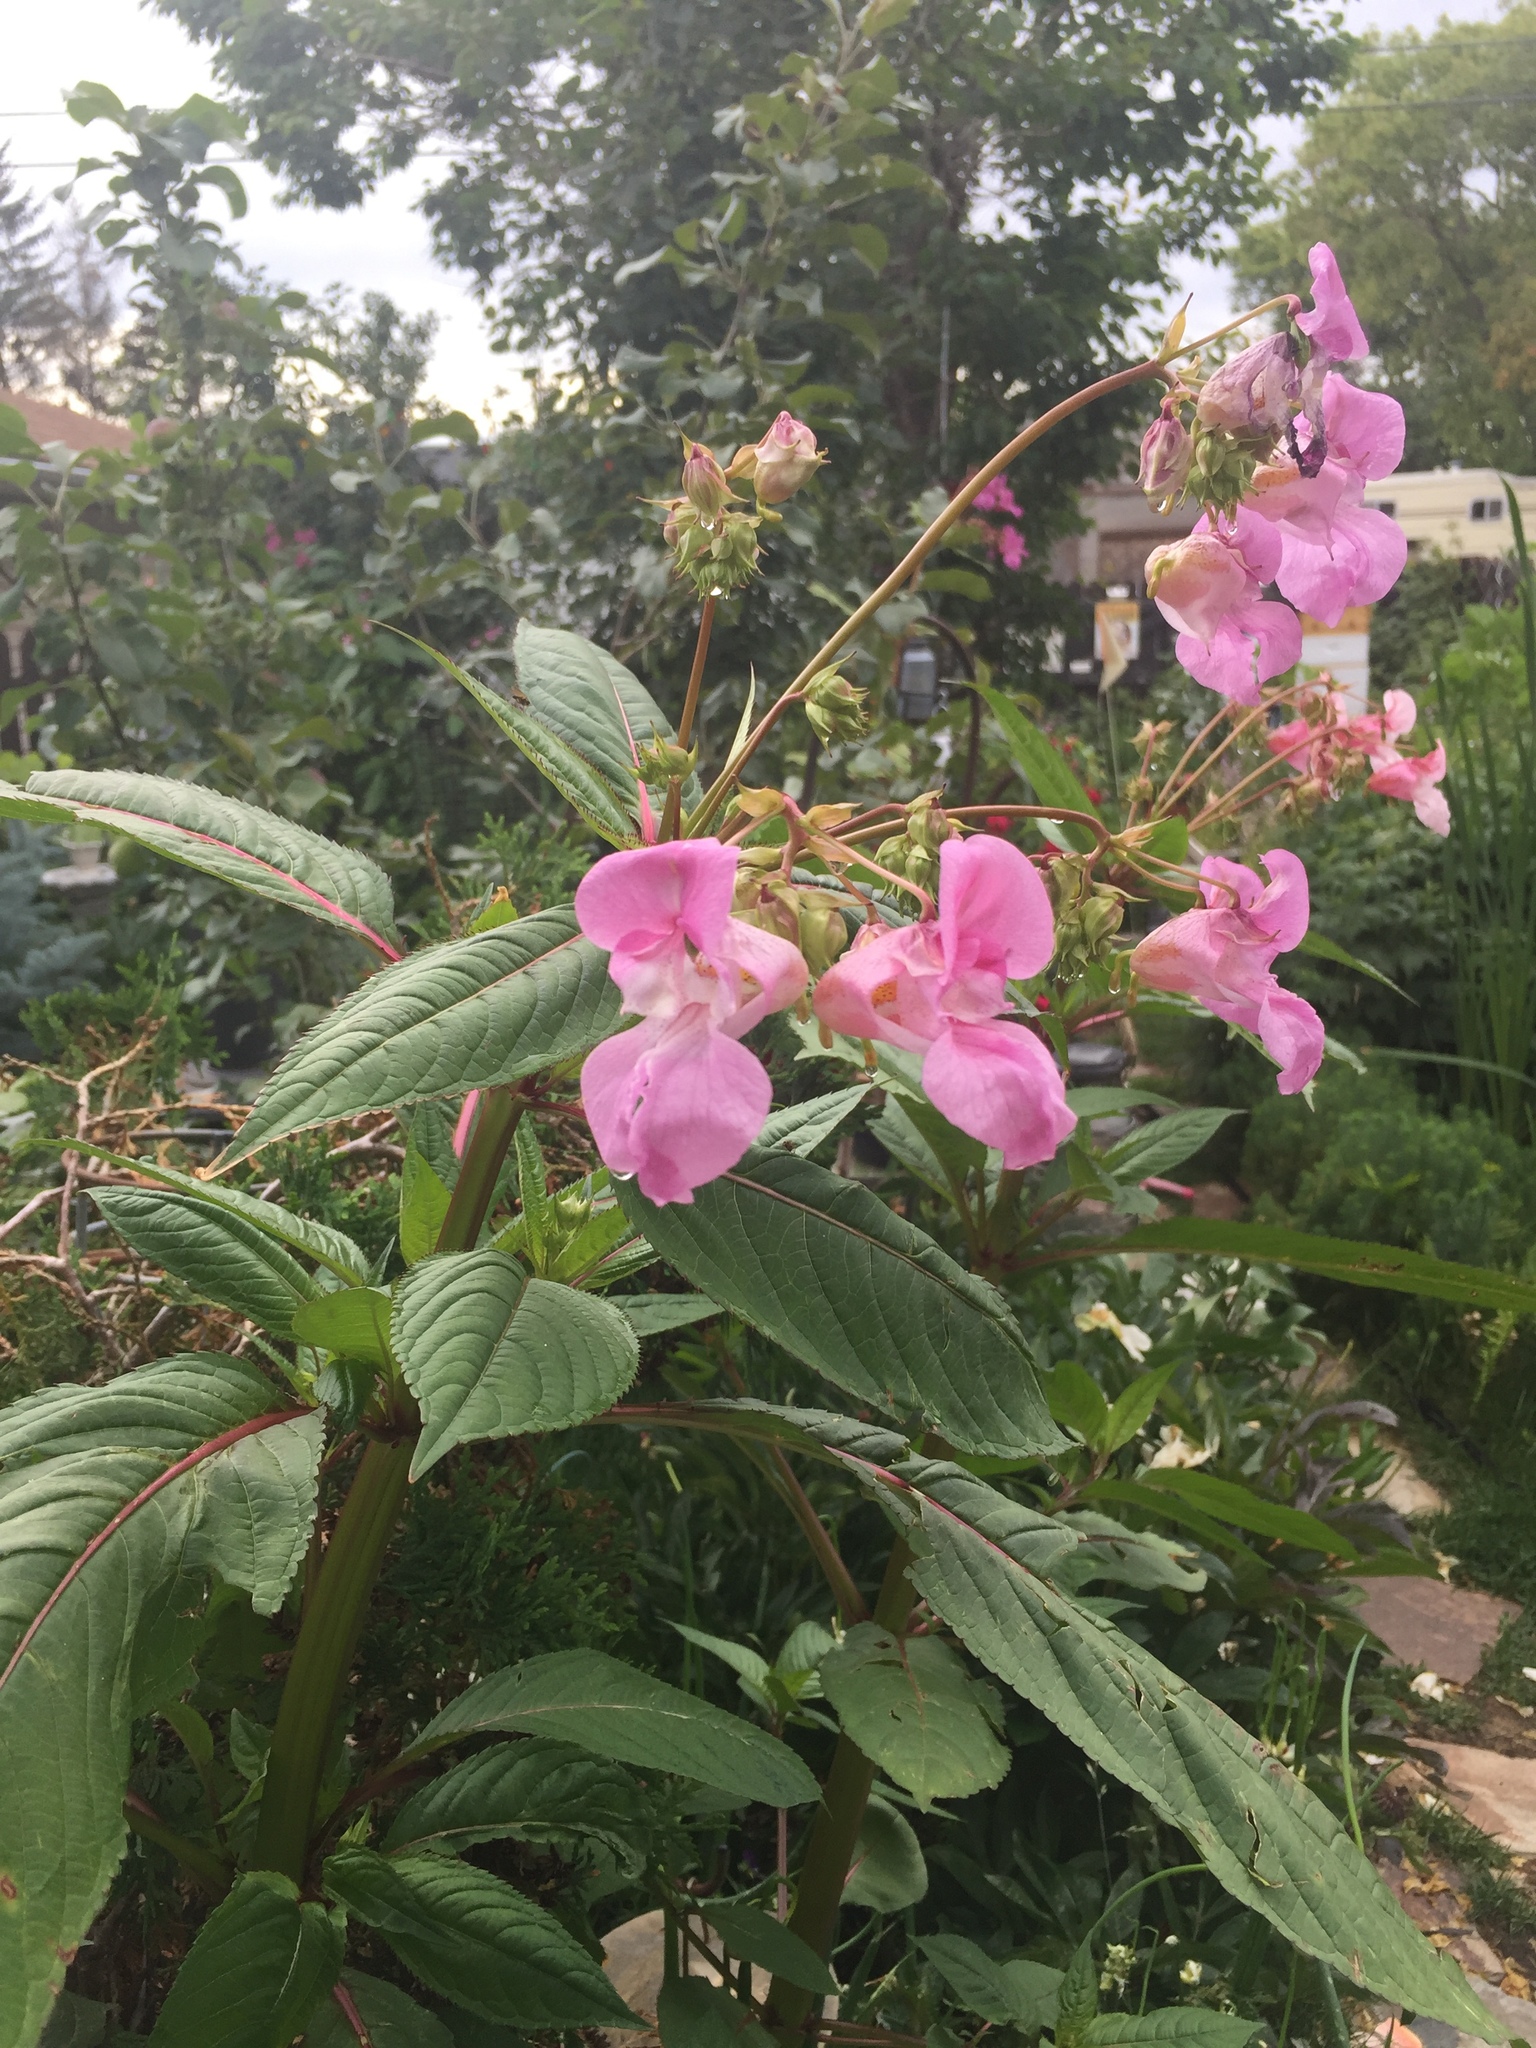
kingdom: Plantae
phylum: Tracheophyta
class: Magnoliopsida
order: Ericales
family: Balsaminaceae
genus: Impatiens
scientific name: Impatiens glandulifera
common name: Himalayan balsam
